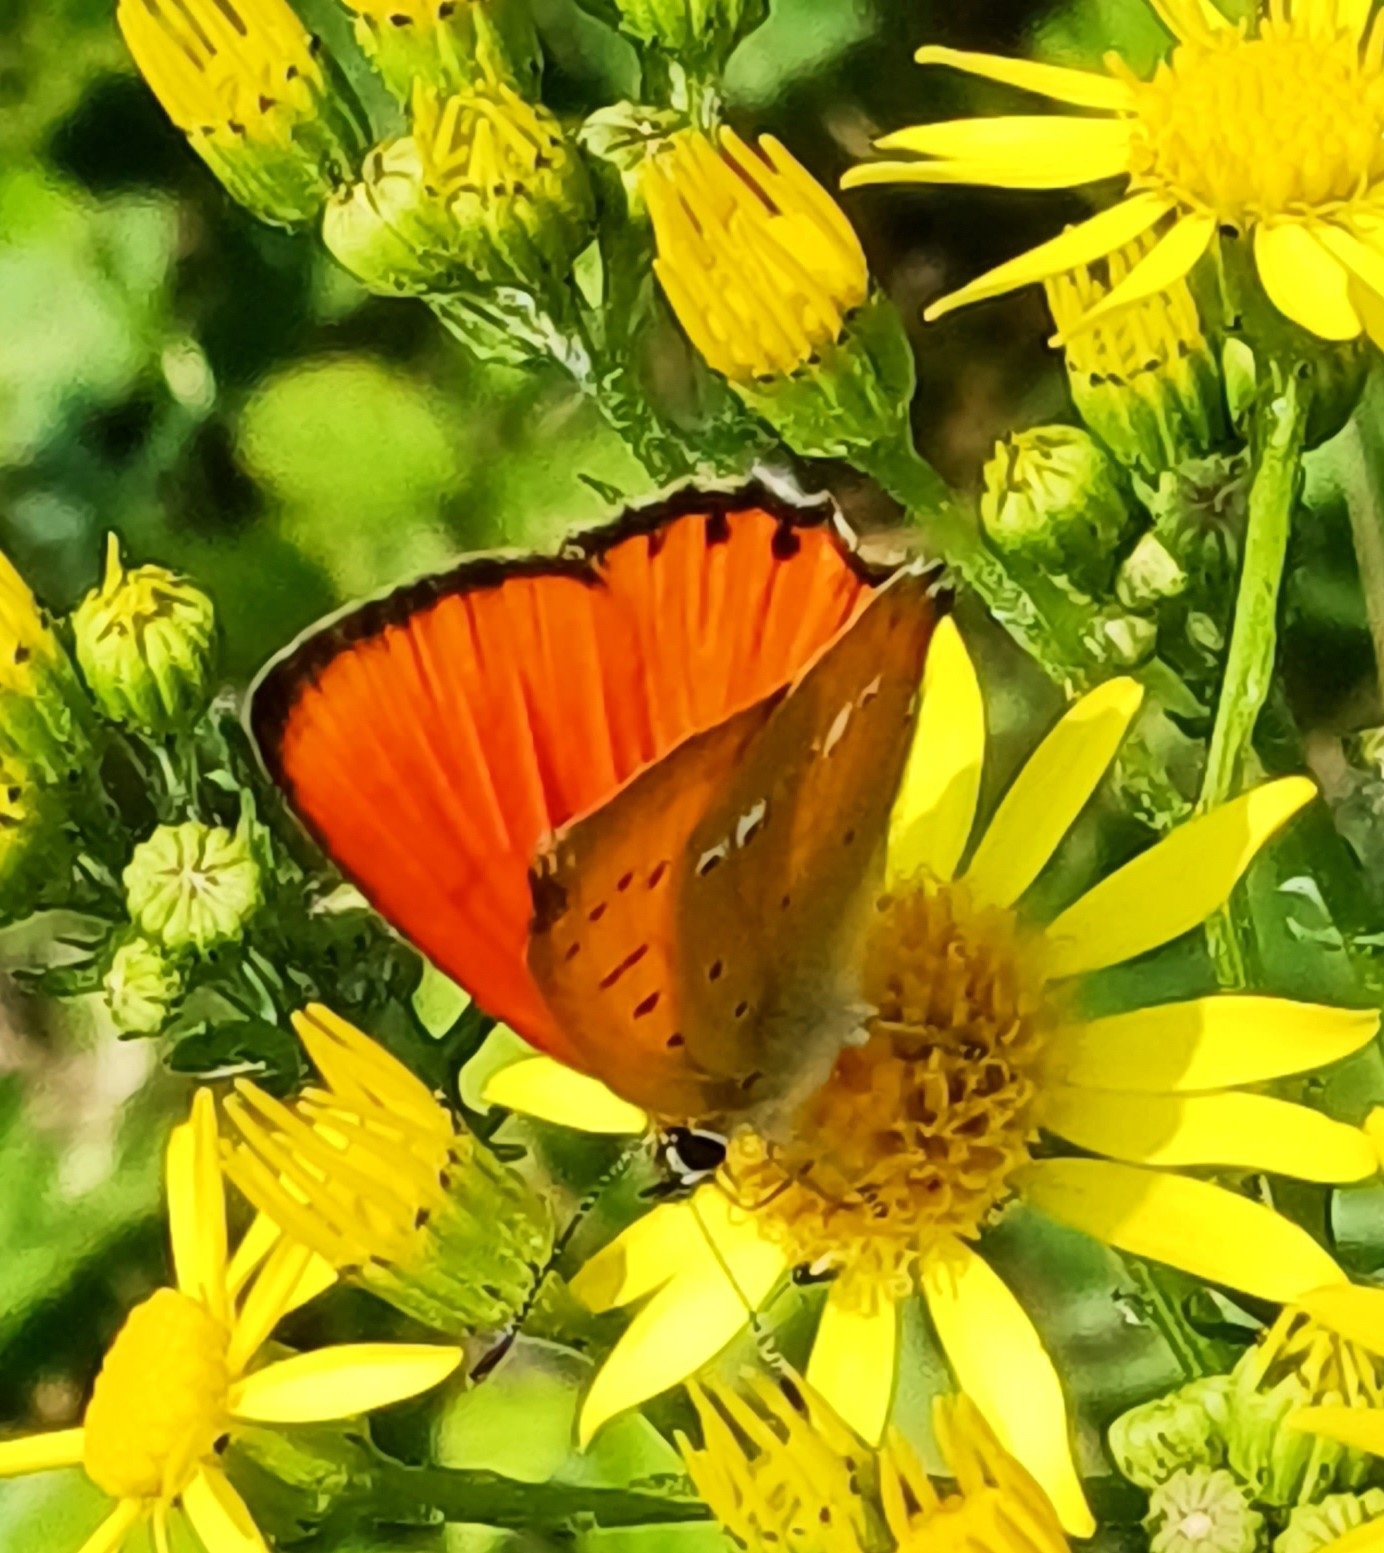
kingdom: Animalia
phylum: Arthropoda
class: Insecta
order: Lepidoptera
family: Lycaenidae
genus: Lycaena
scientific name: Lycaena virgaureae
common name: Scarce copper
